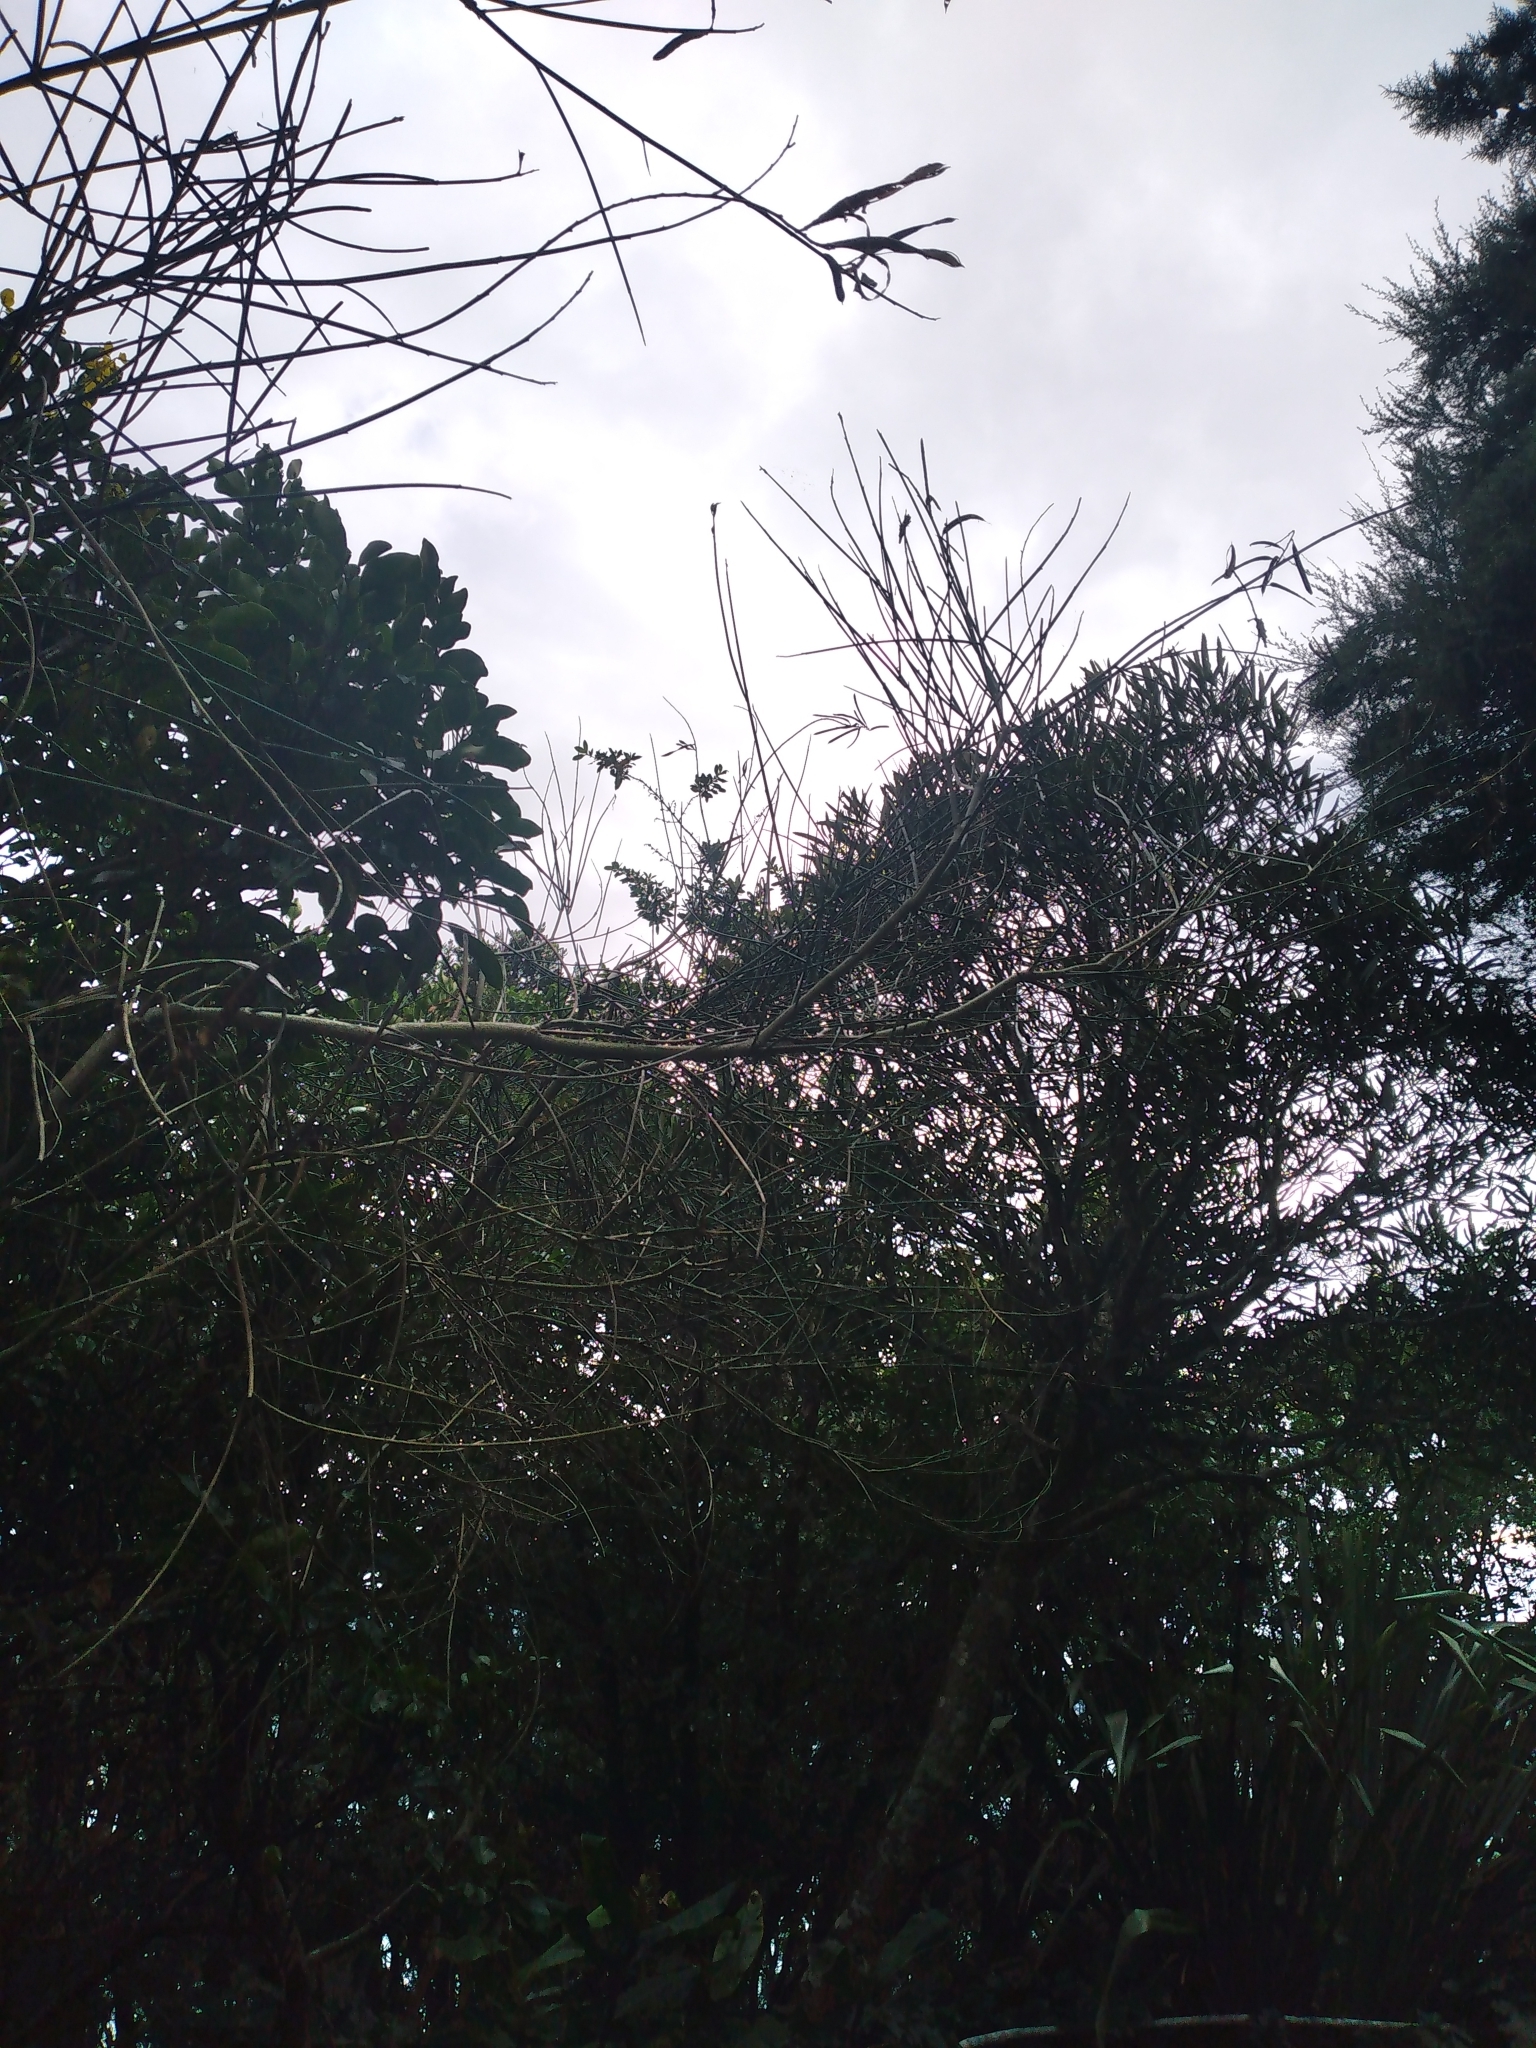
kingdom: Plantae
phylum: Tracheophyta
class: Magnoliopsida
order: Fabales
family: Fabaceae
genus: Spartium
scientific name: Spartium junceum
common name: Spanish broom
